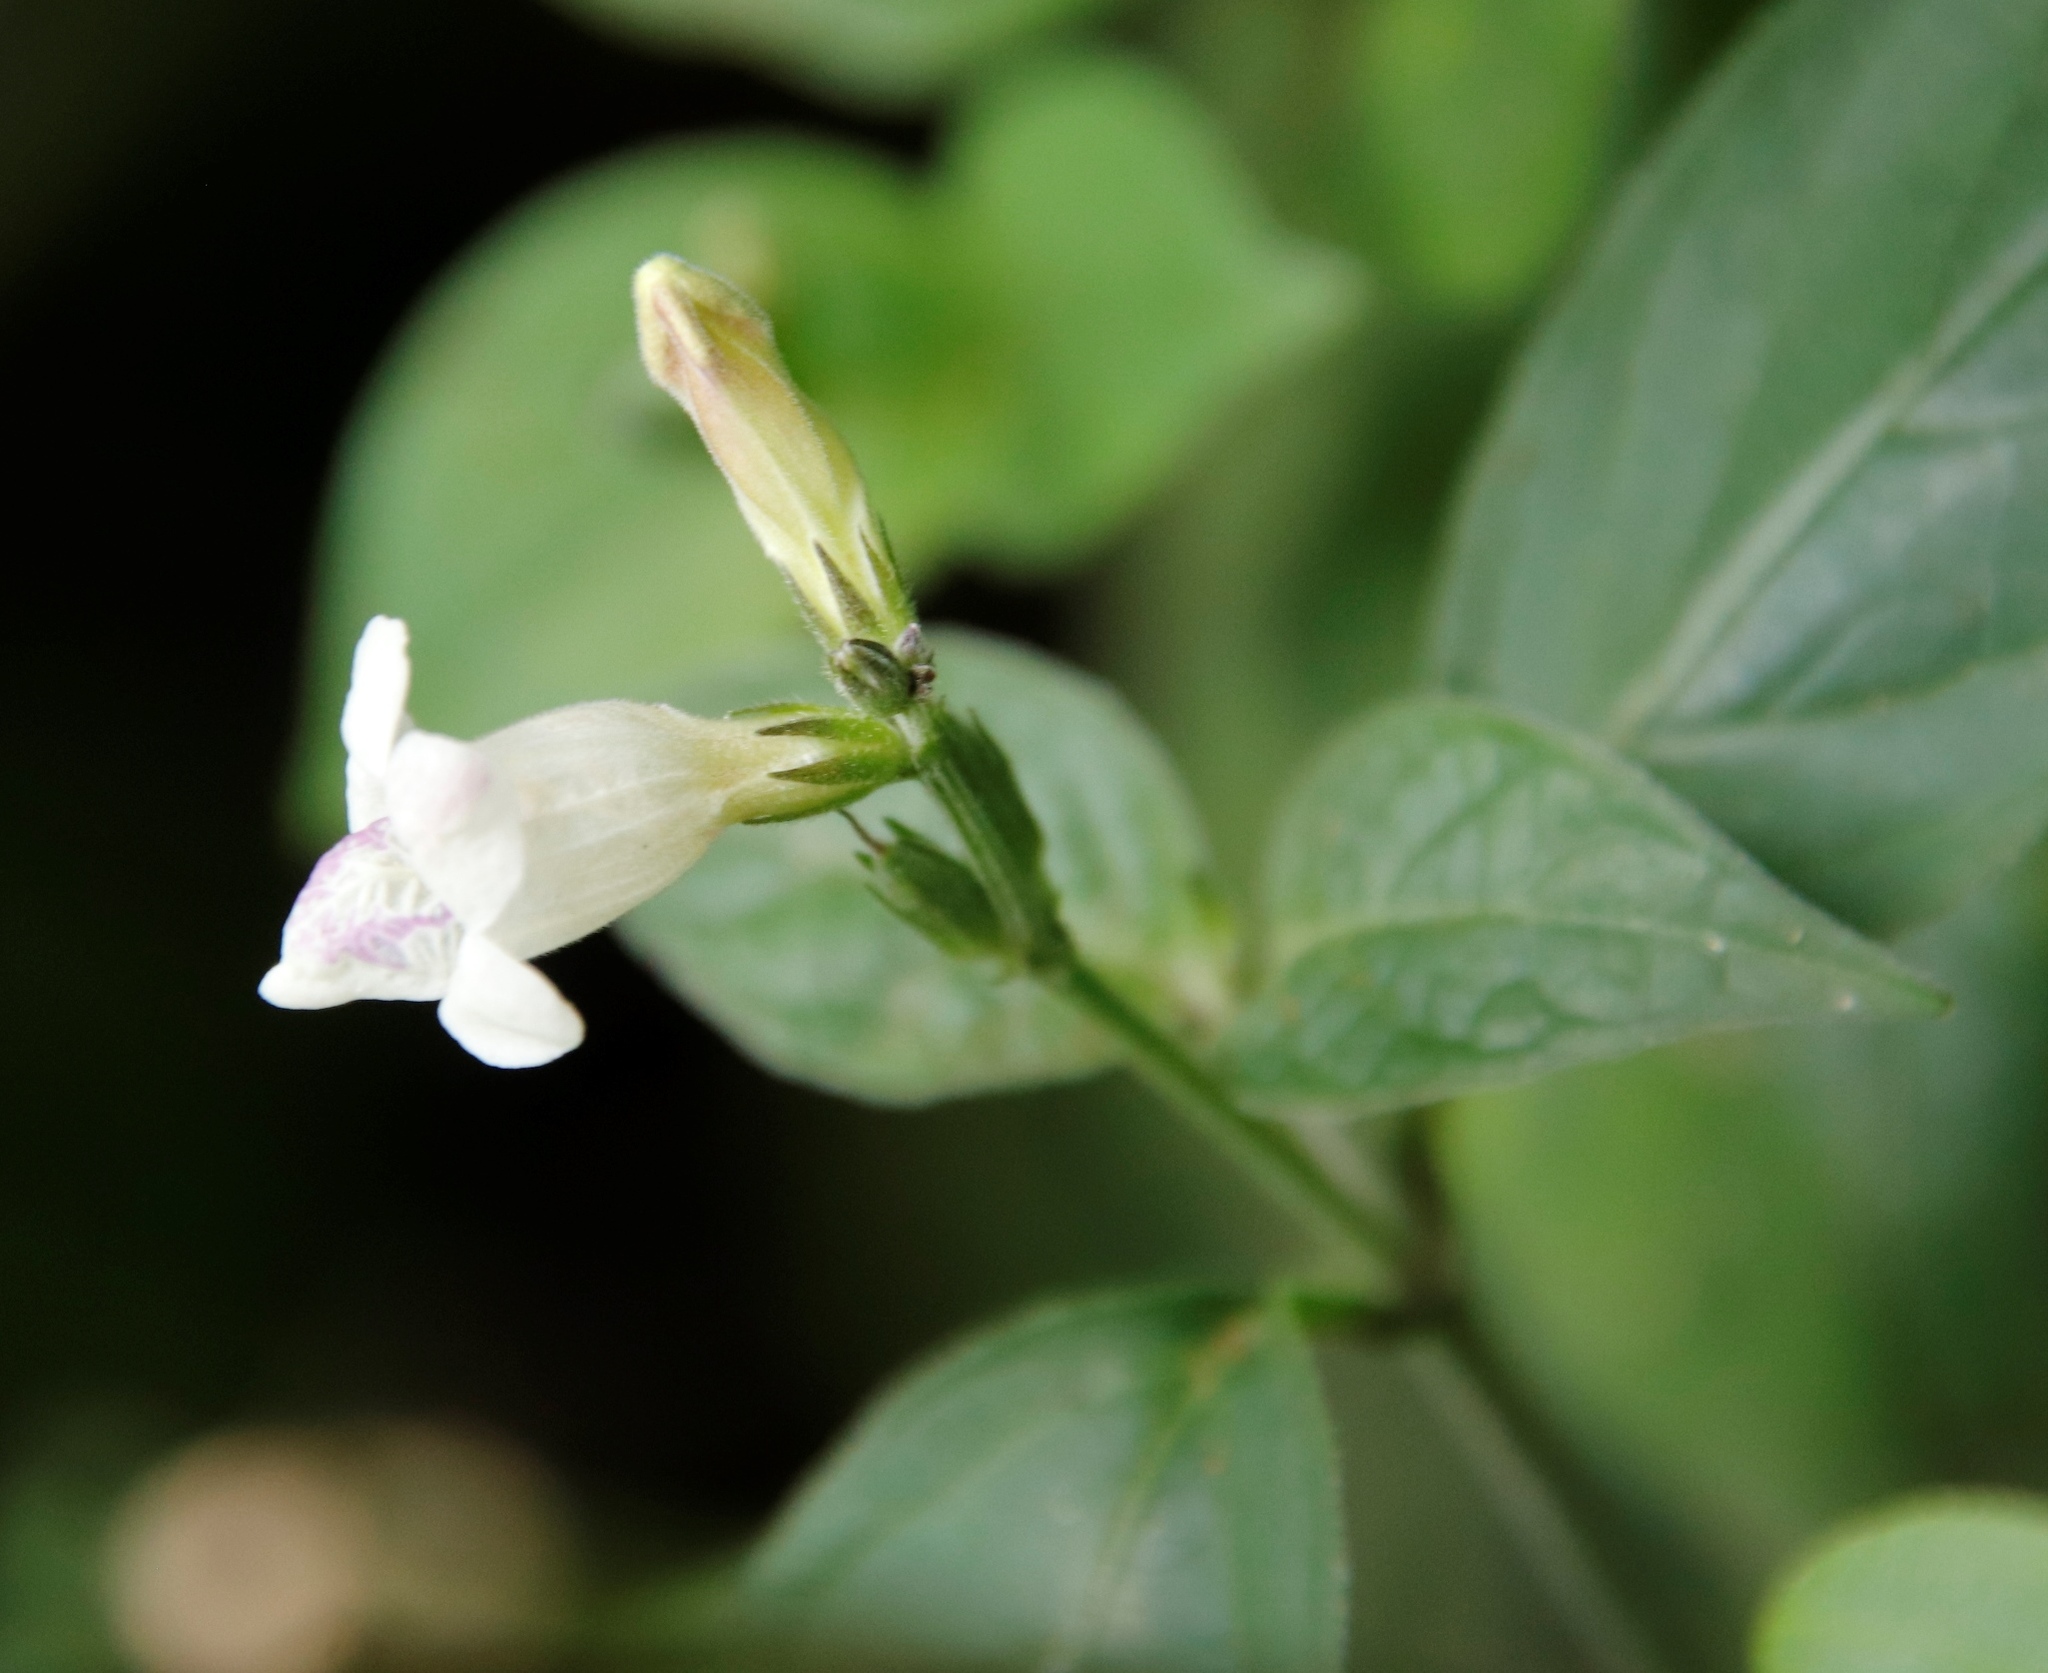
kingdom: Plantae
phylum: Tracheophyta
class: Magnoliopsida
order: Lamiales
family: Acanthaceae
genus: Asystasia
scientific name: Asystasia intrusa
